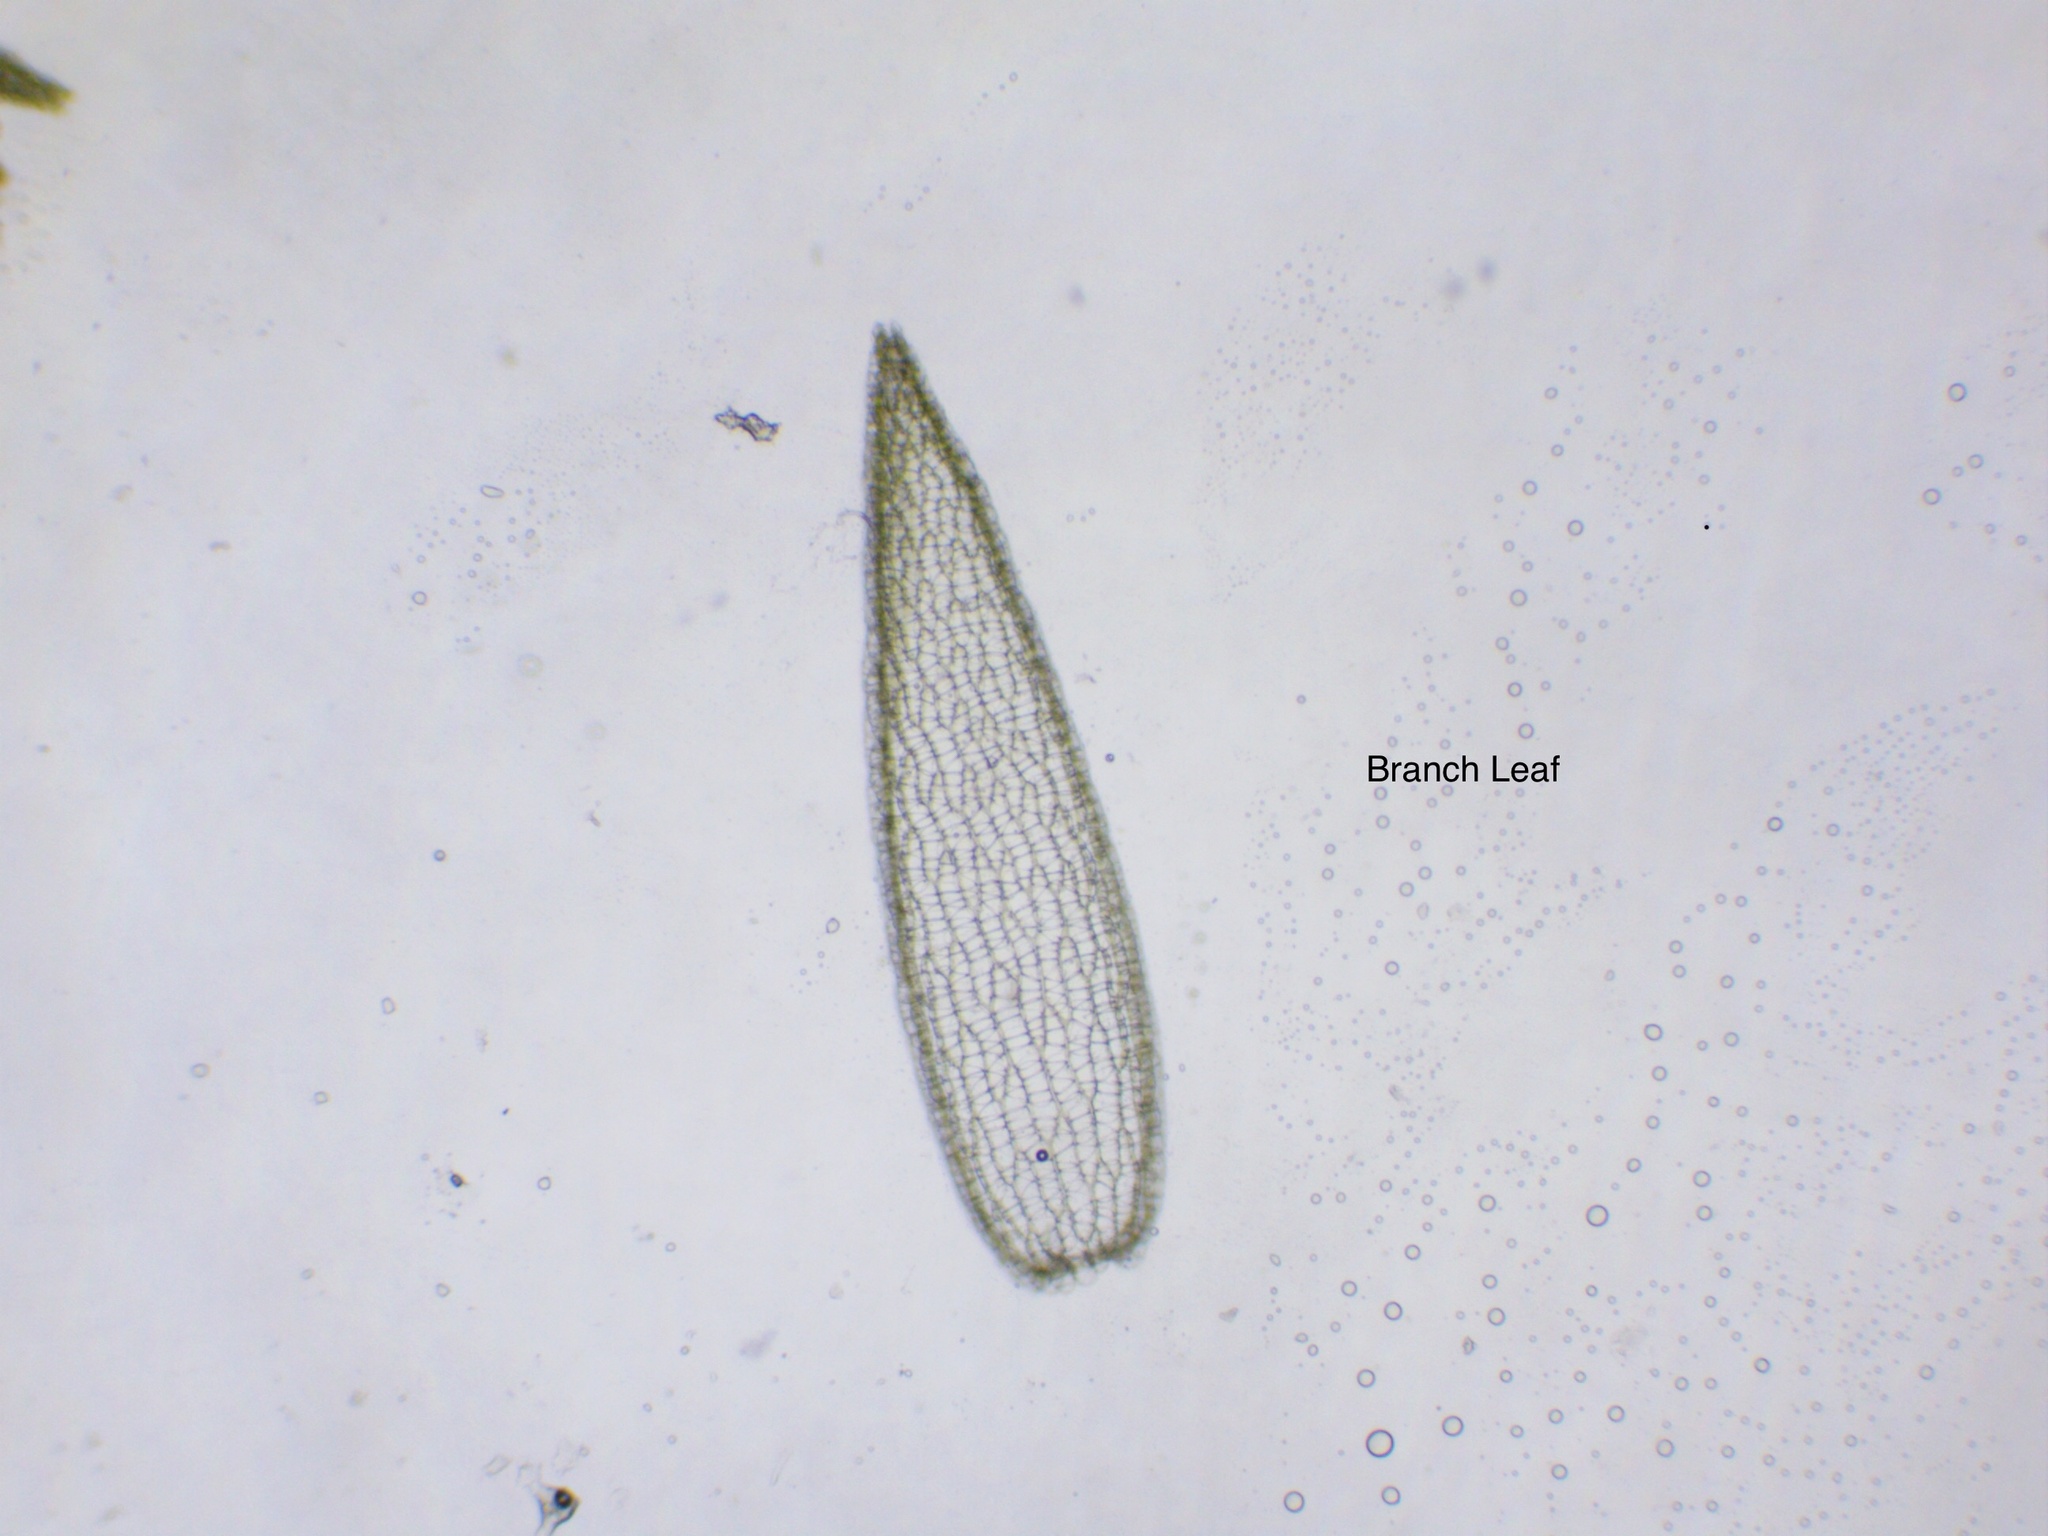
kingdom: Plantae
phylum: Bryophyta
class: Sphagnopsida
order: Sphagnales
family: Sphagnaceae
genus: Sphagnum
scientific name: Sphagnum quinquefarium
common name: Five-ranked peat moss
